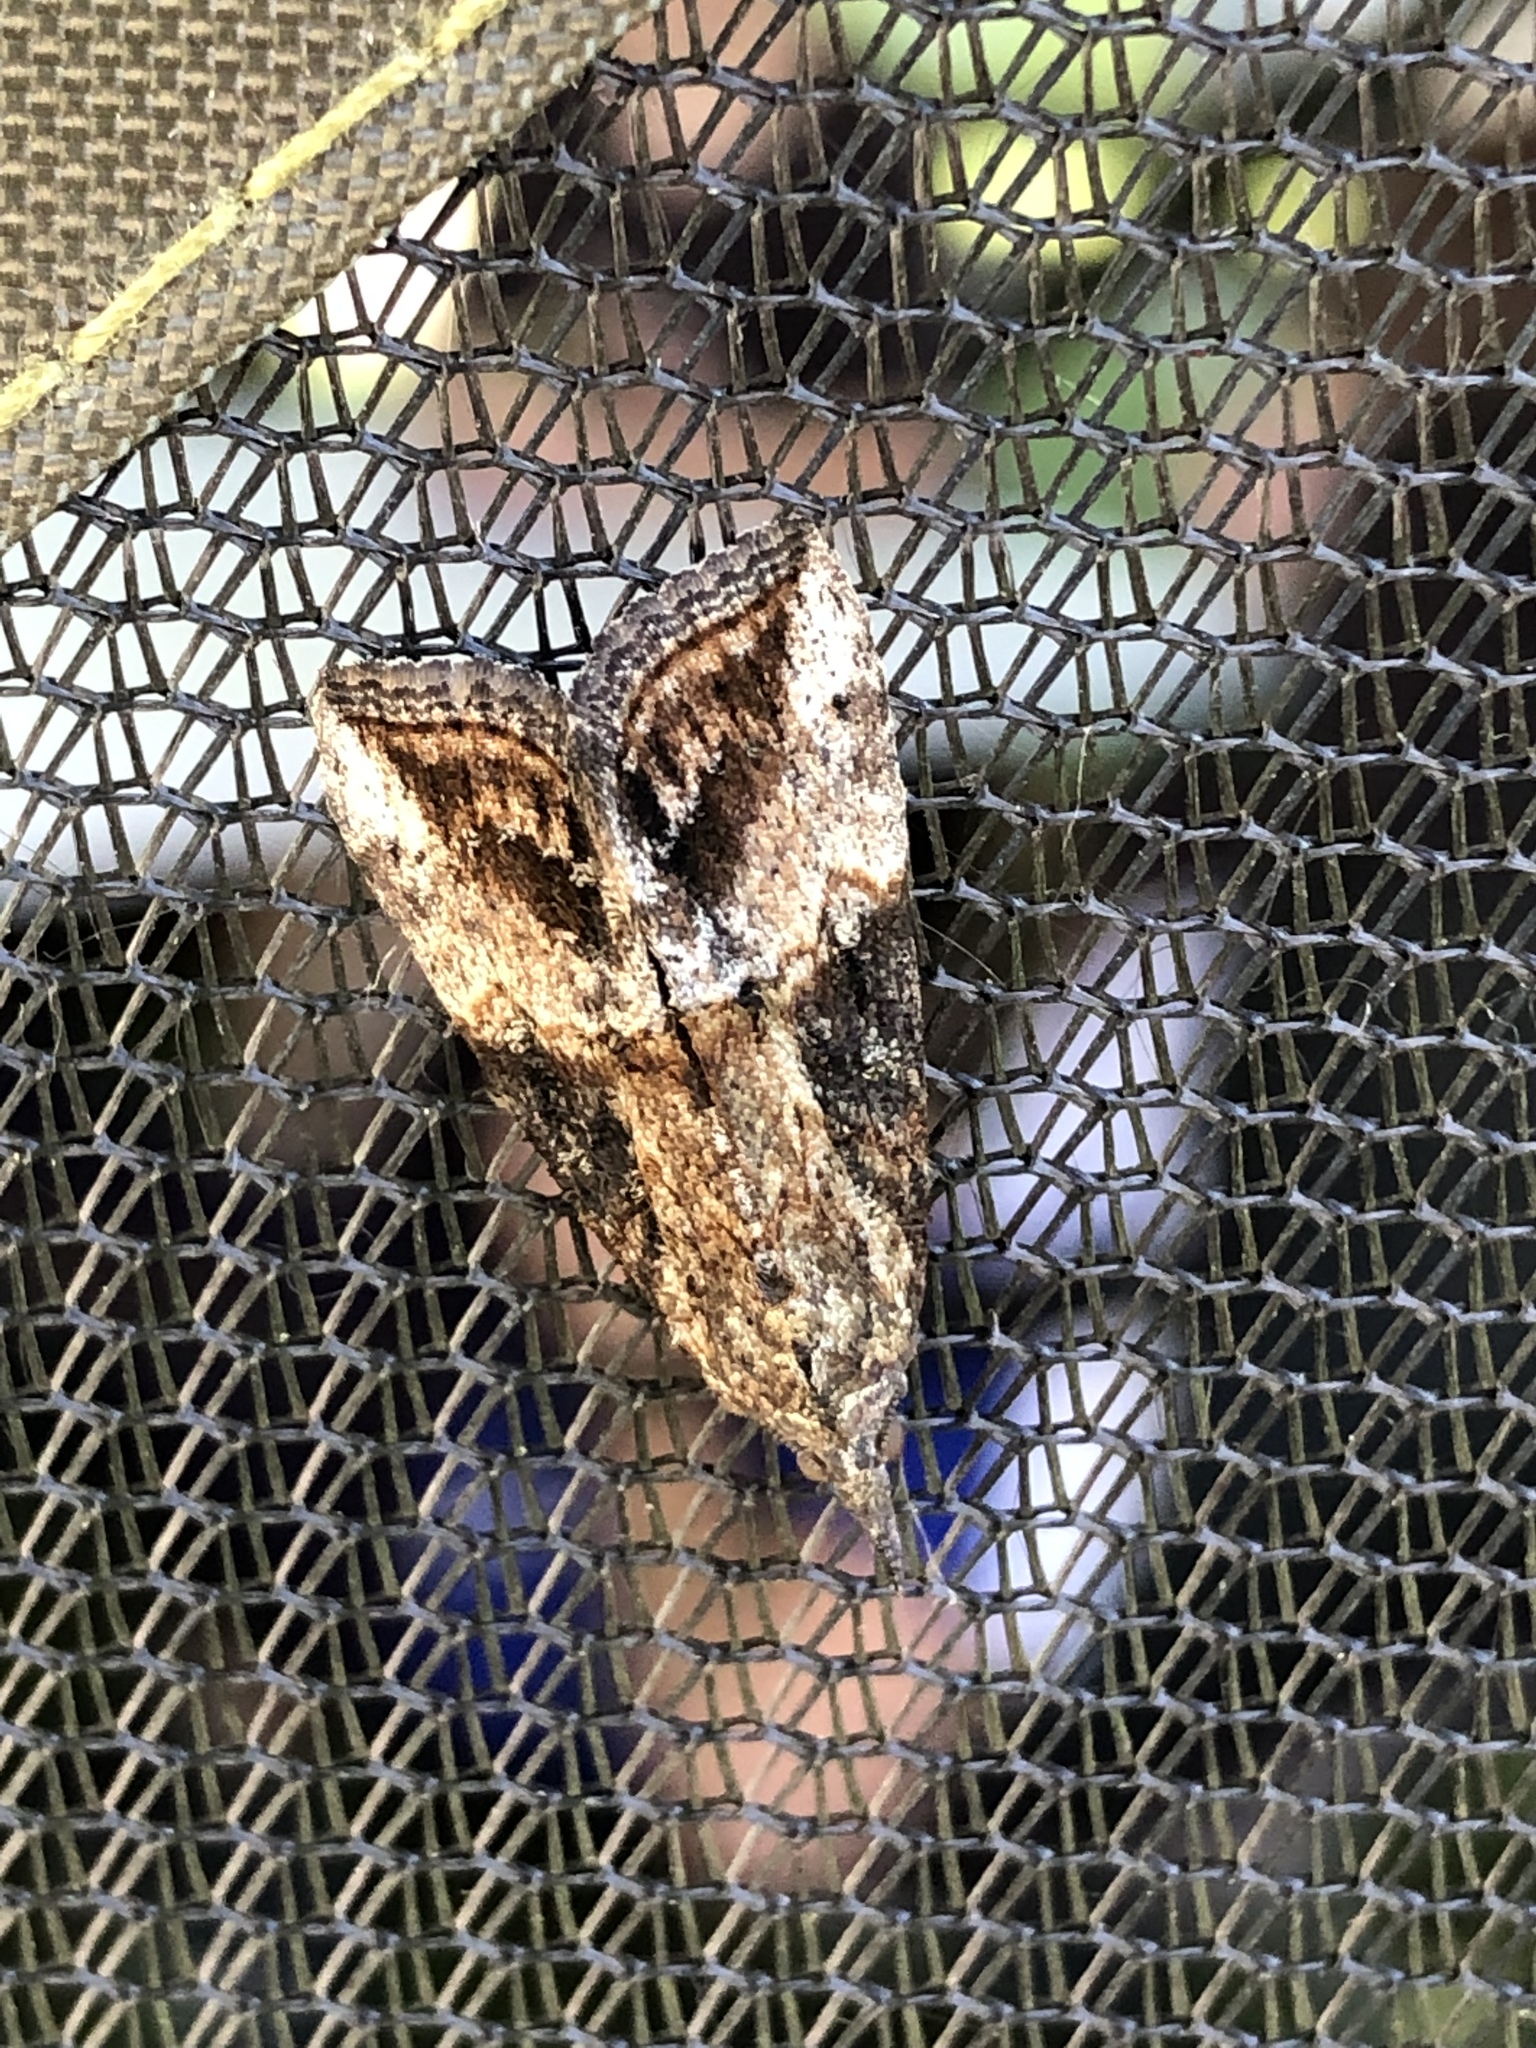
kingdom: Animalia
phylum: Arthropoda
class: Insecta
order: Lepidoptera
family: Erebidae
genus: Hypena
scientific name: Hypena scabra
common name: Green cloverworm
